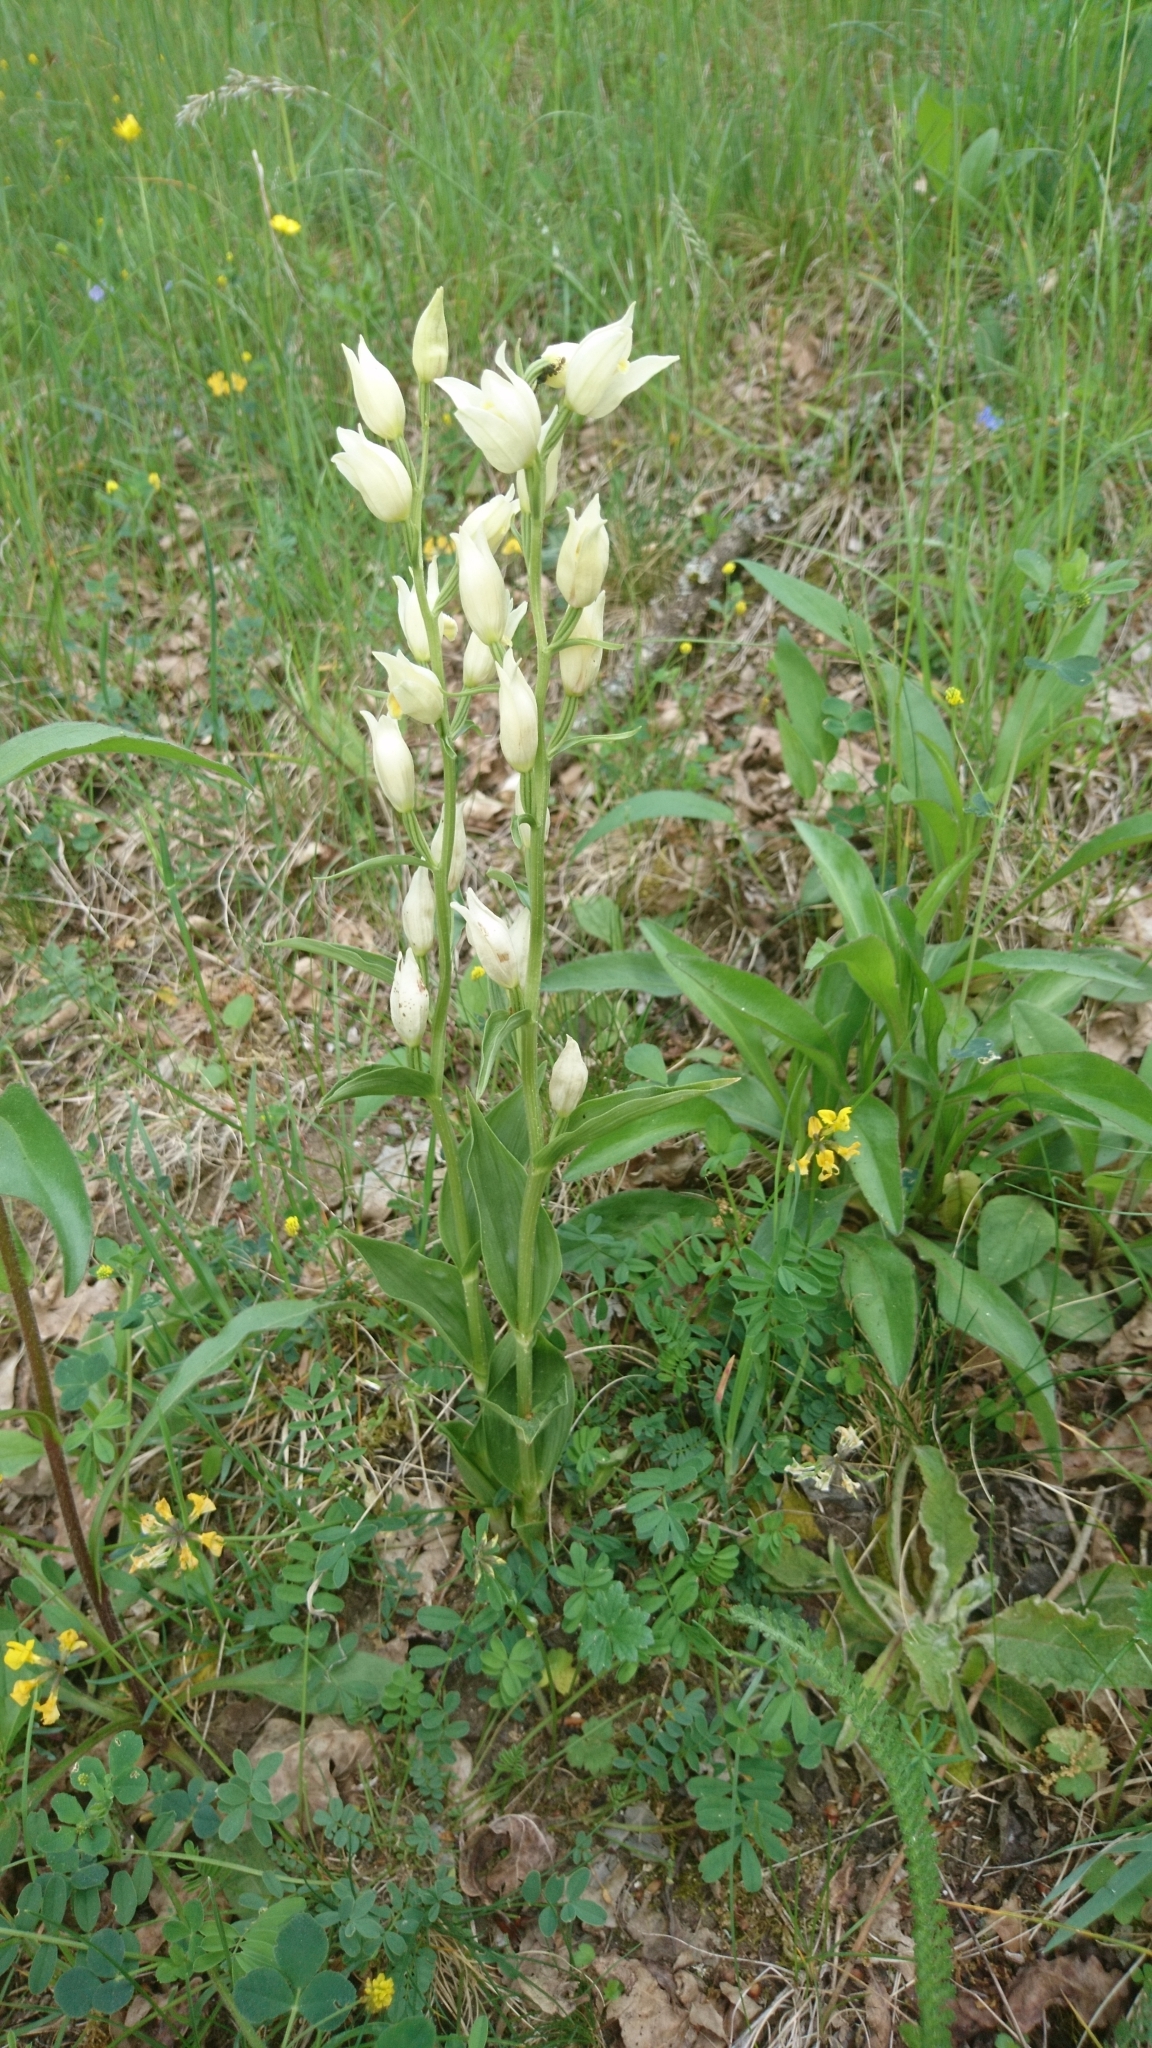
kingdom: Plantae
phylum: Tracheophyta
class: Liliopsida
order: Asparagales
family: Orchidaceae
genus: Cephalanthera
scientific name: Cephalanthera damasonium
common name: White helleborine
